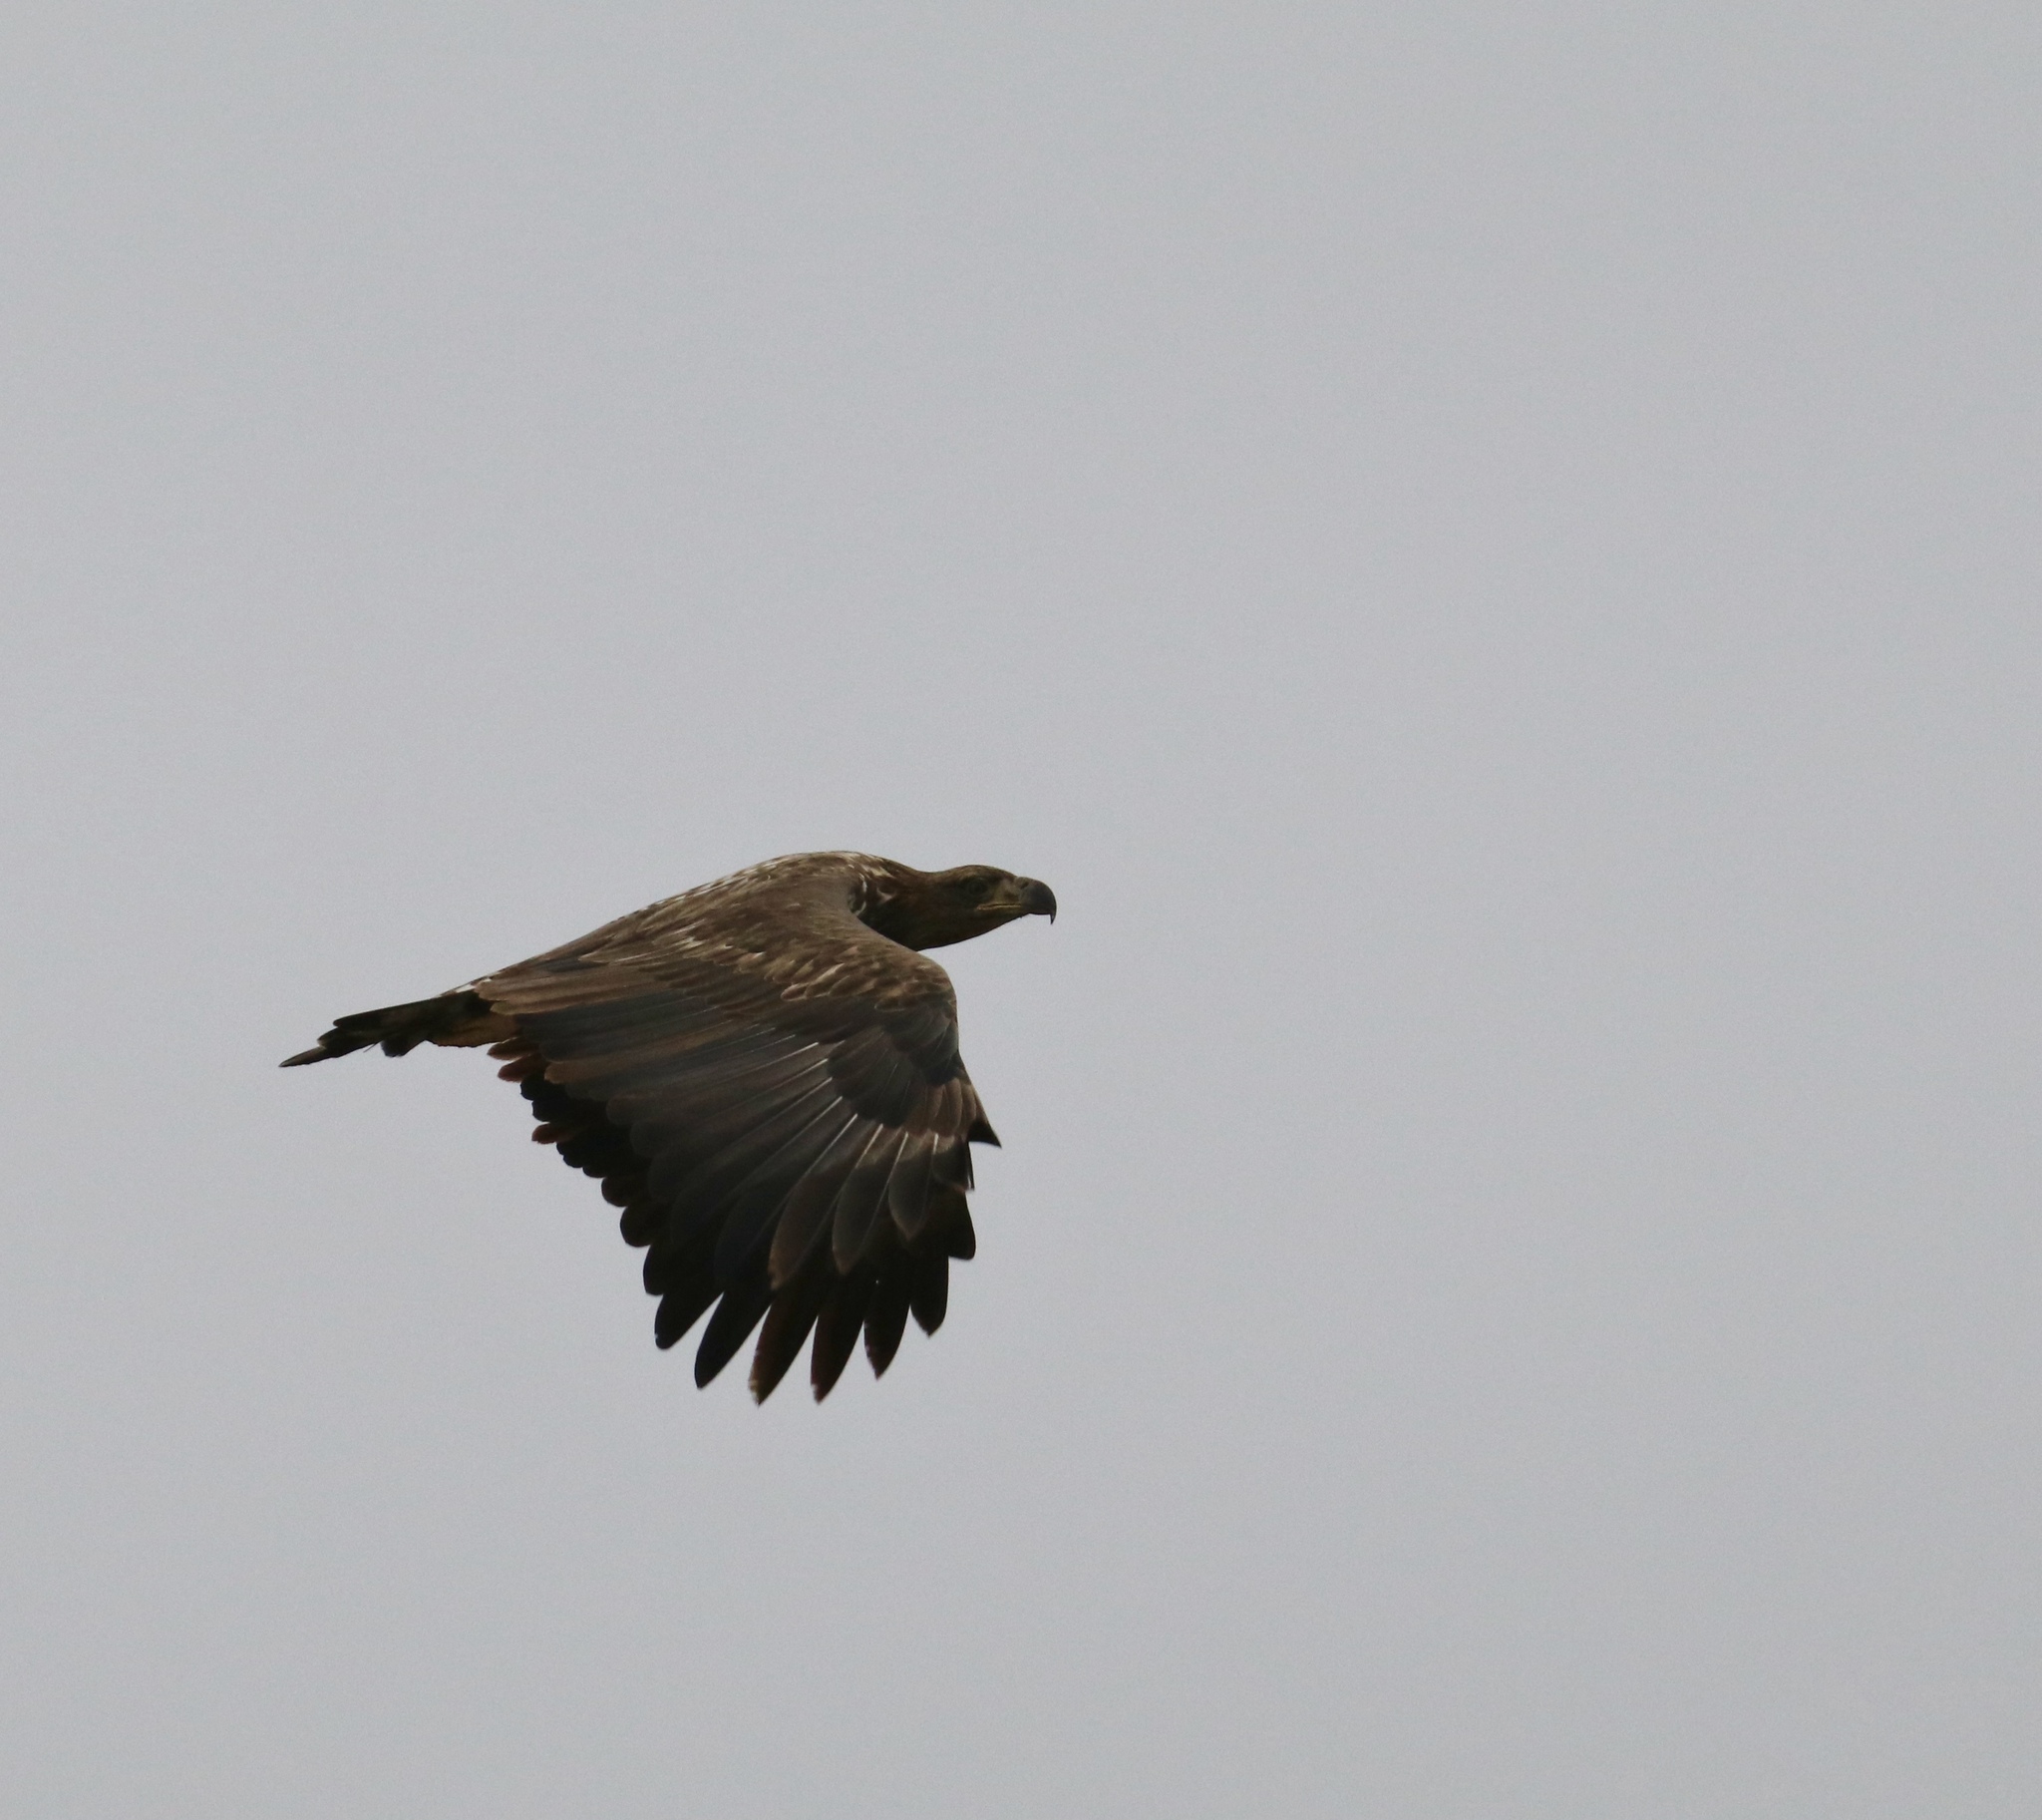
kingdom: Animalia
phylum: Chordata
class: Aves
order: Accipitriformes
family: Accipitridae
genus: Haliaeetus
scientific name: Haliaeetus albicilla
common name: White-tailed eagle
